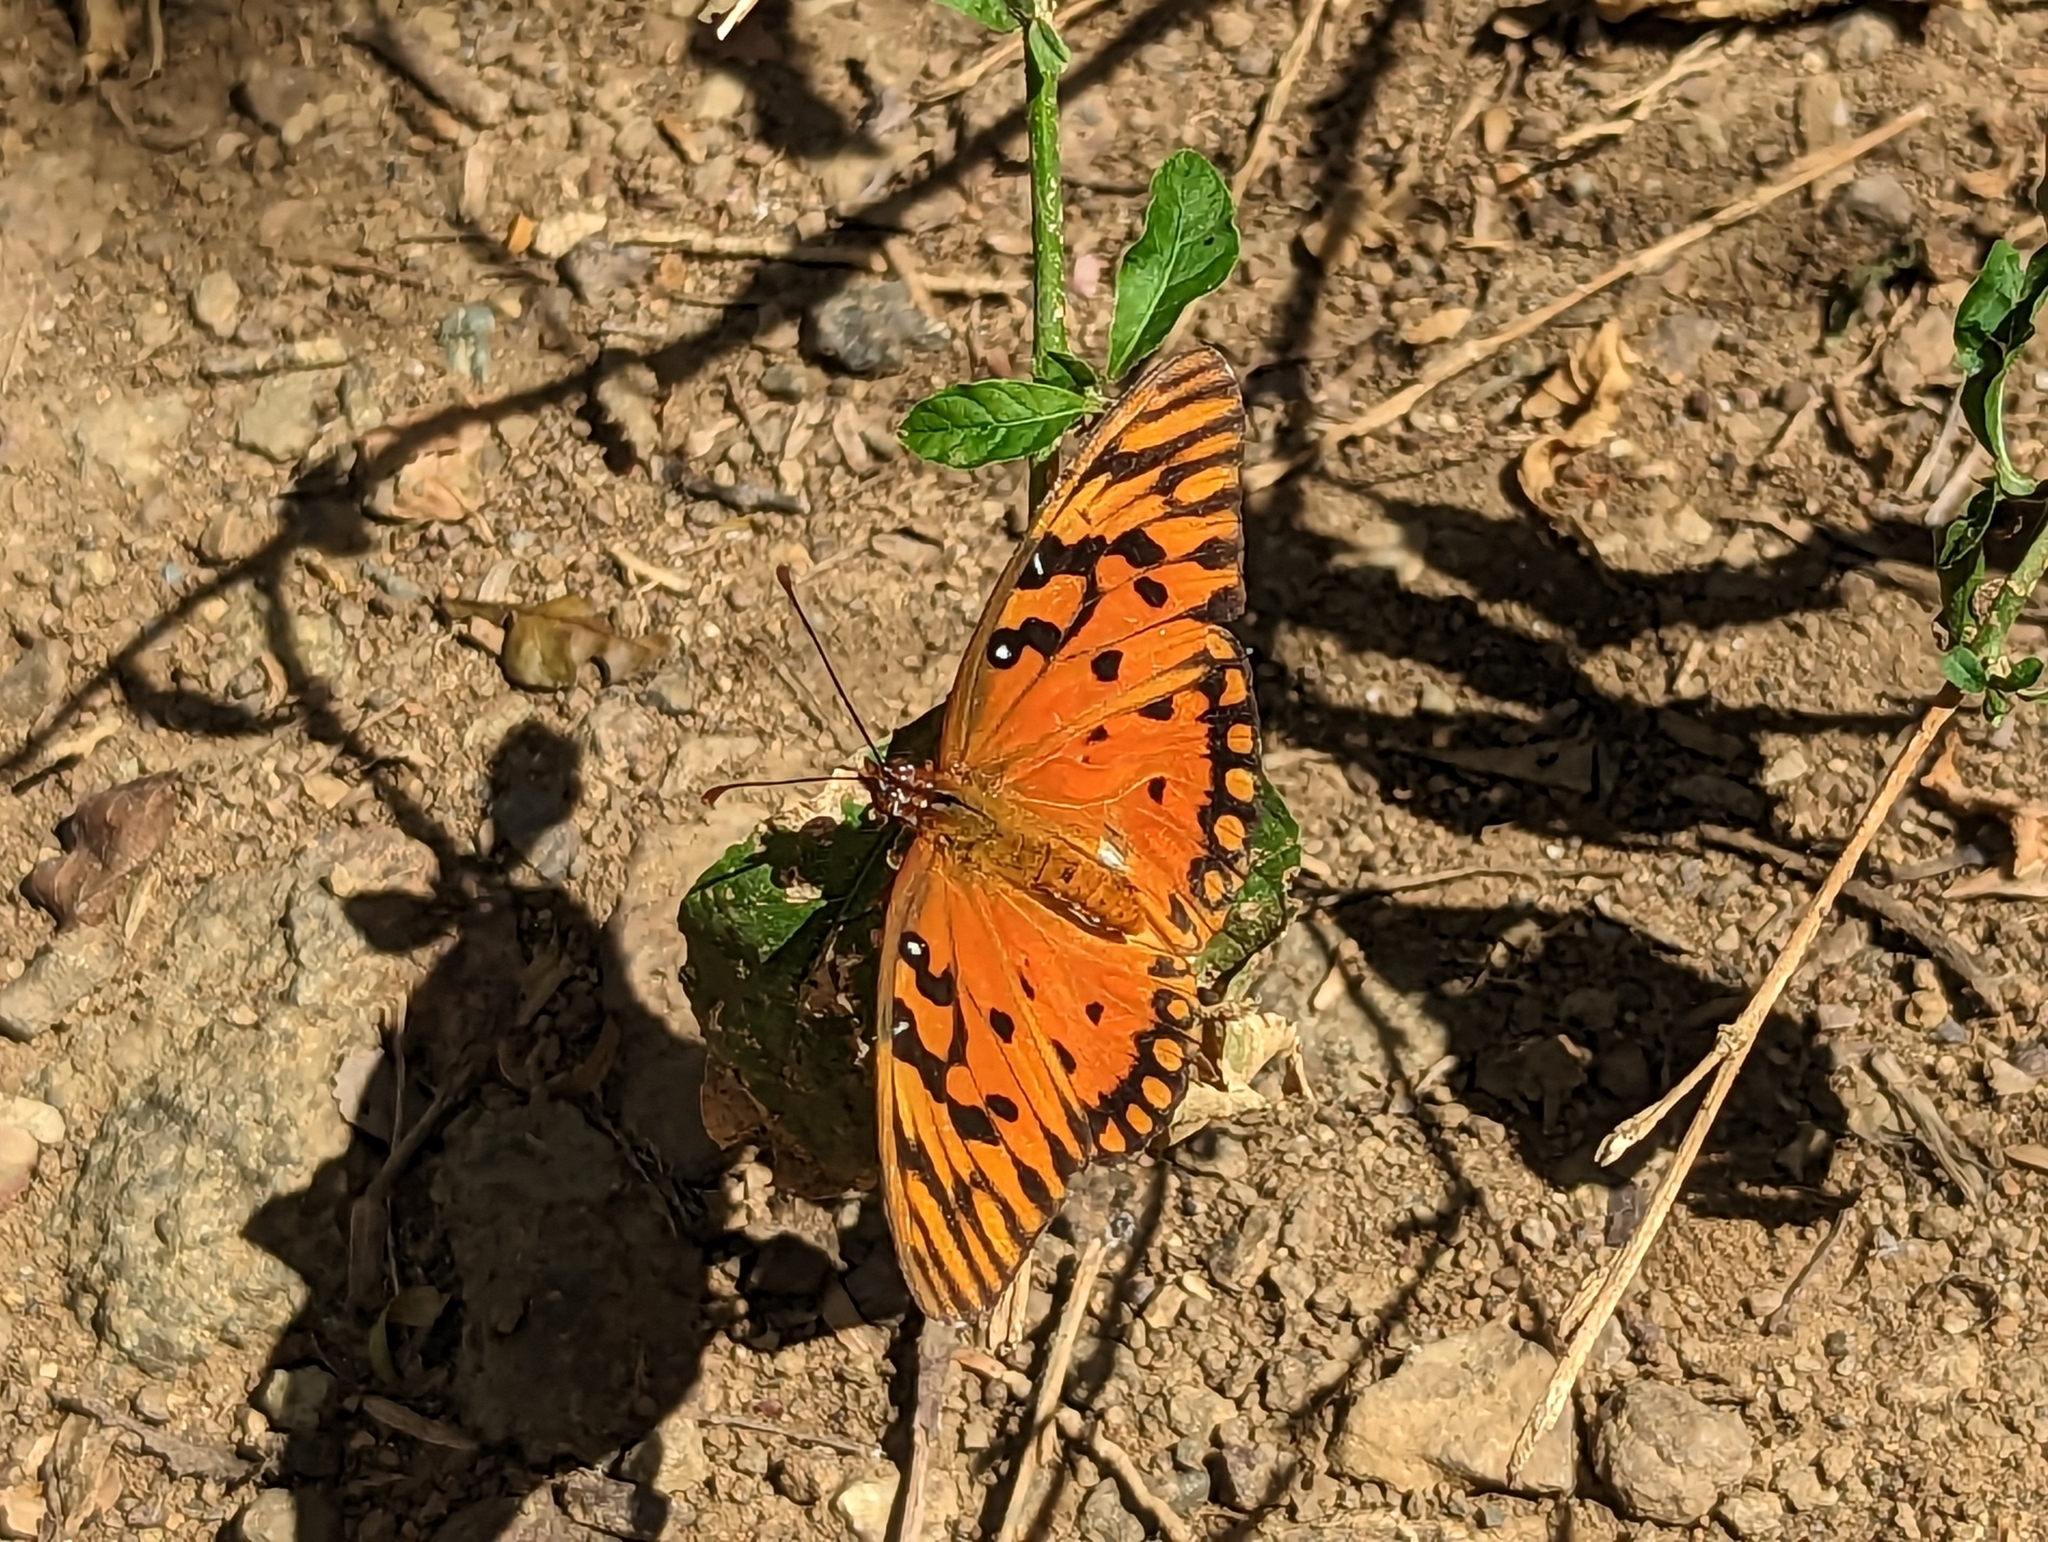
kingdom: Animalia
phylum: Arthropoda
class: Insecta
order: Lepidoptera
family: Nymphalidae
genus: Dione
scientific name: Dione vanillae
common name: Gulf fritillary
